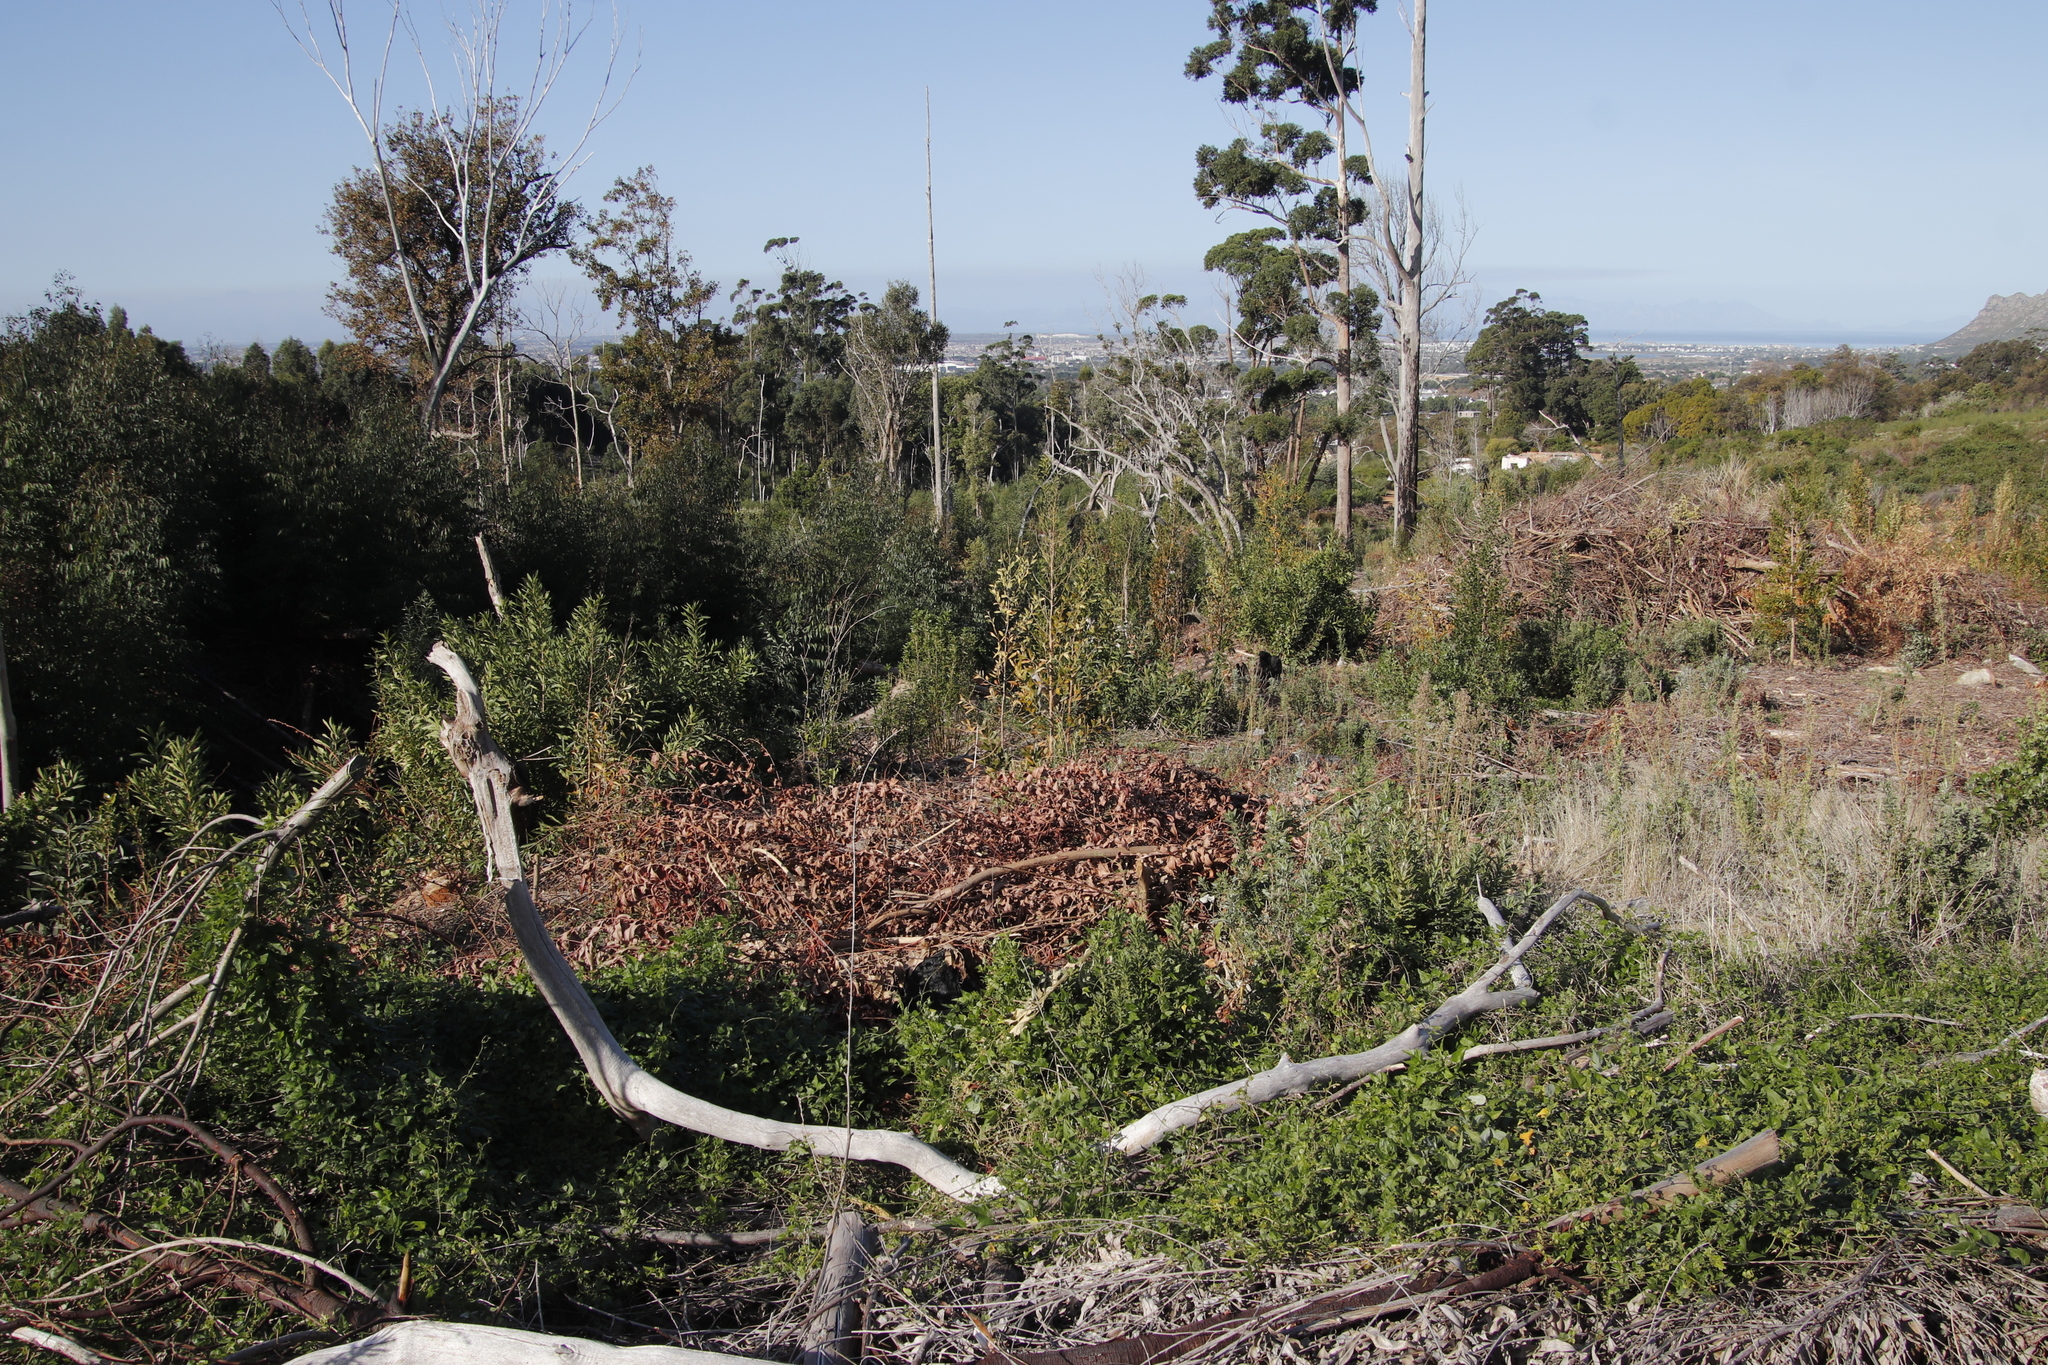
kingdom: Plantae
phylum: Tracheophyta
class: Magnoliopsida
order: Fabales
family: Fabaceae
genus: Acacia
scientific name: Acacia melanoxylon
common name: Blackwood
